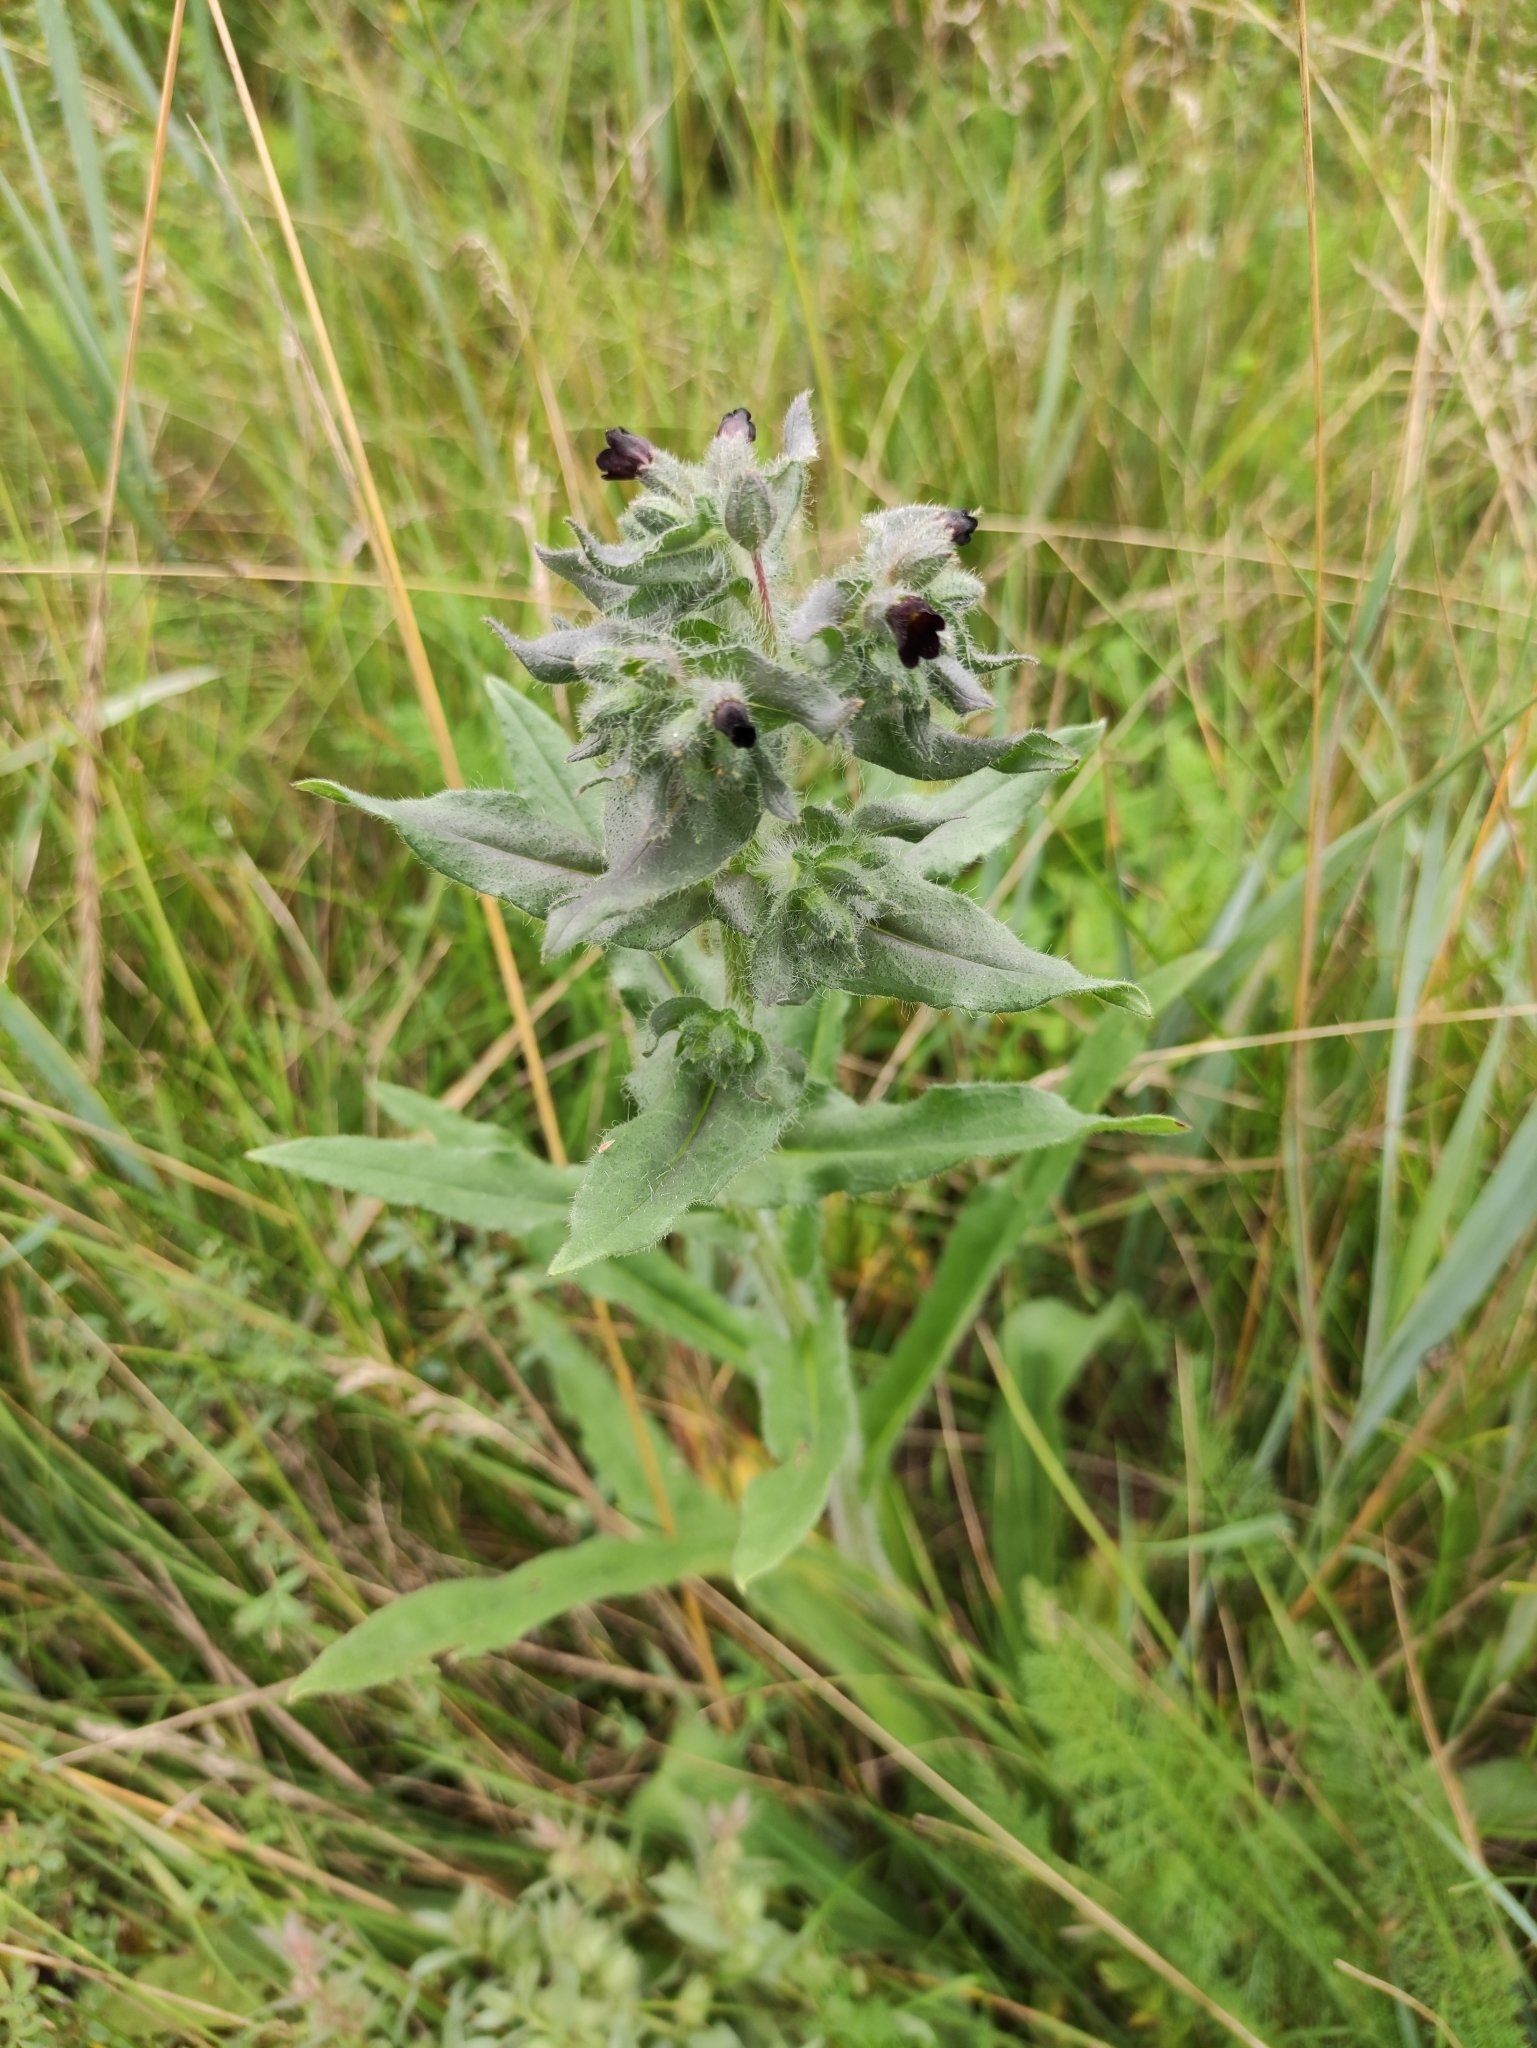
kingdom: Plantae
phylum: Tracheophyta
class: Magnoliopsida
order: Boraginales
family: Boraginaceae
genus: Nonea
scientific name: Nonea pulla
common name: Brown nonea
